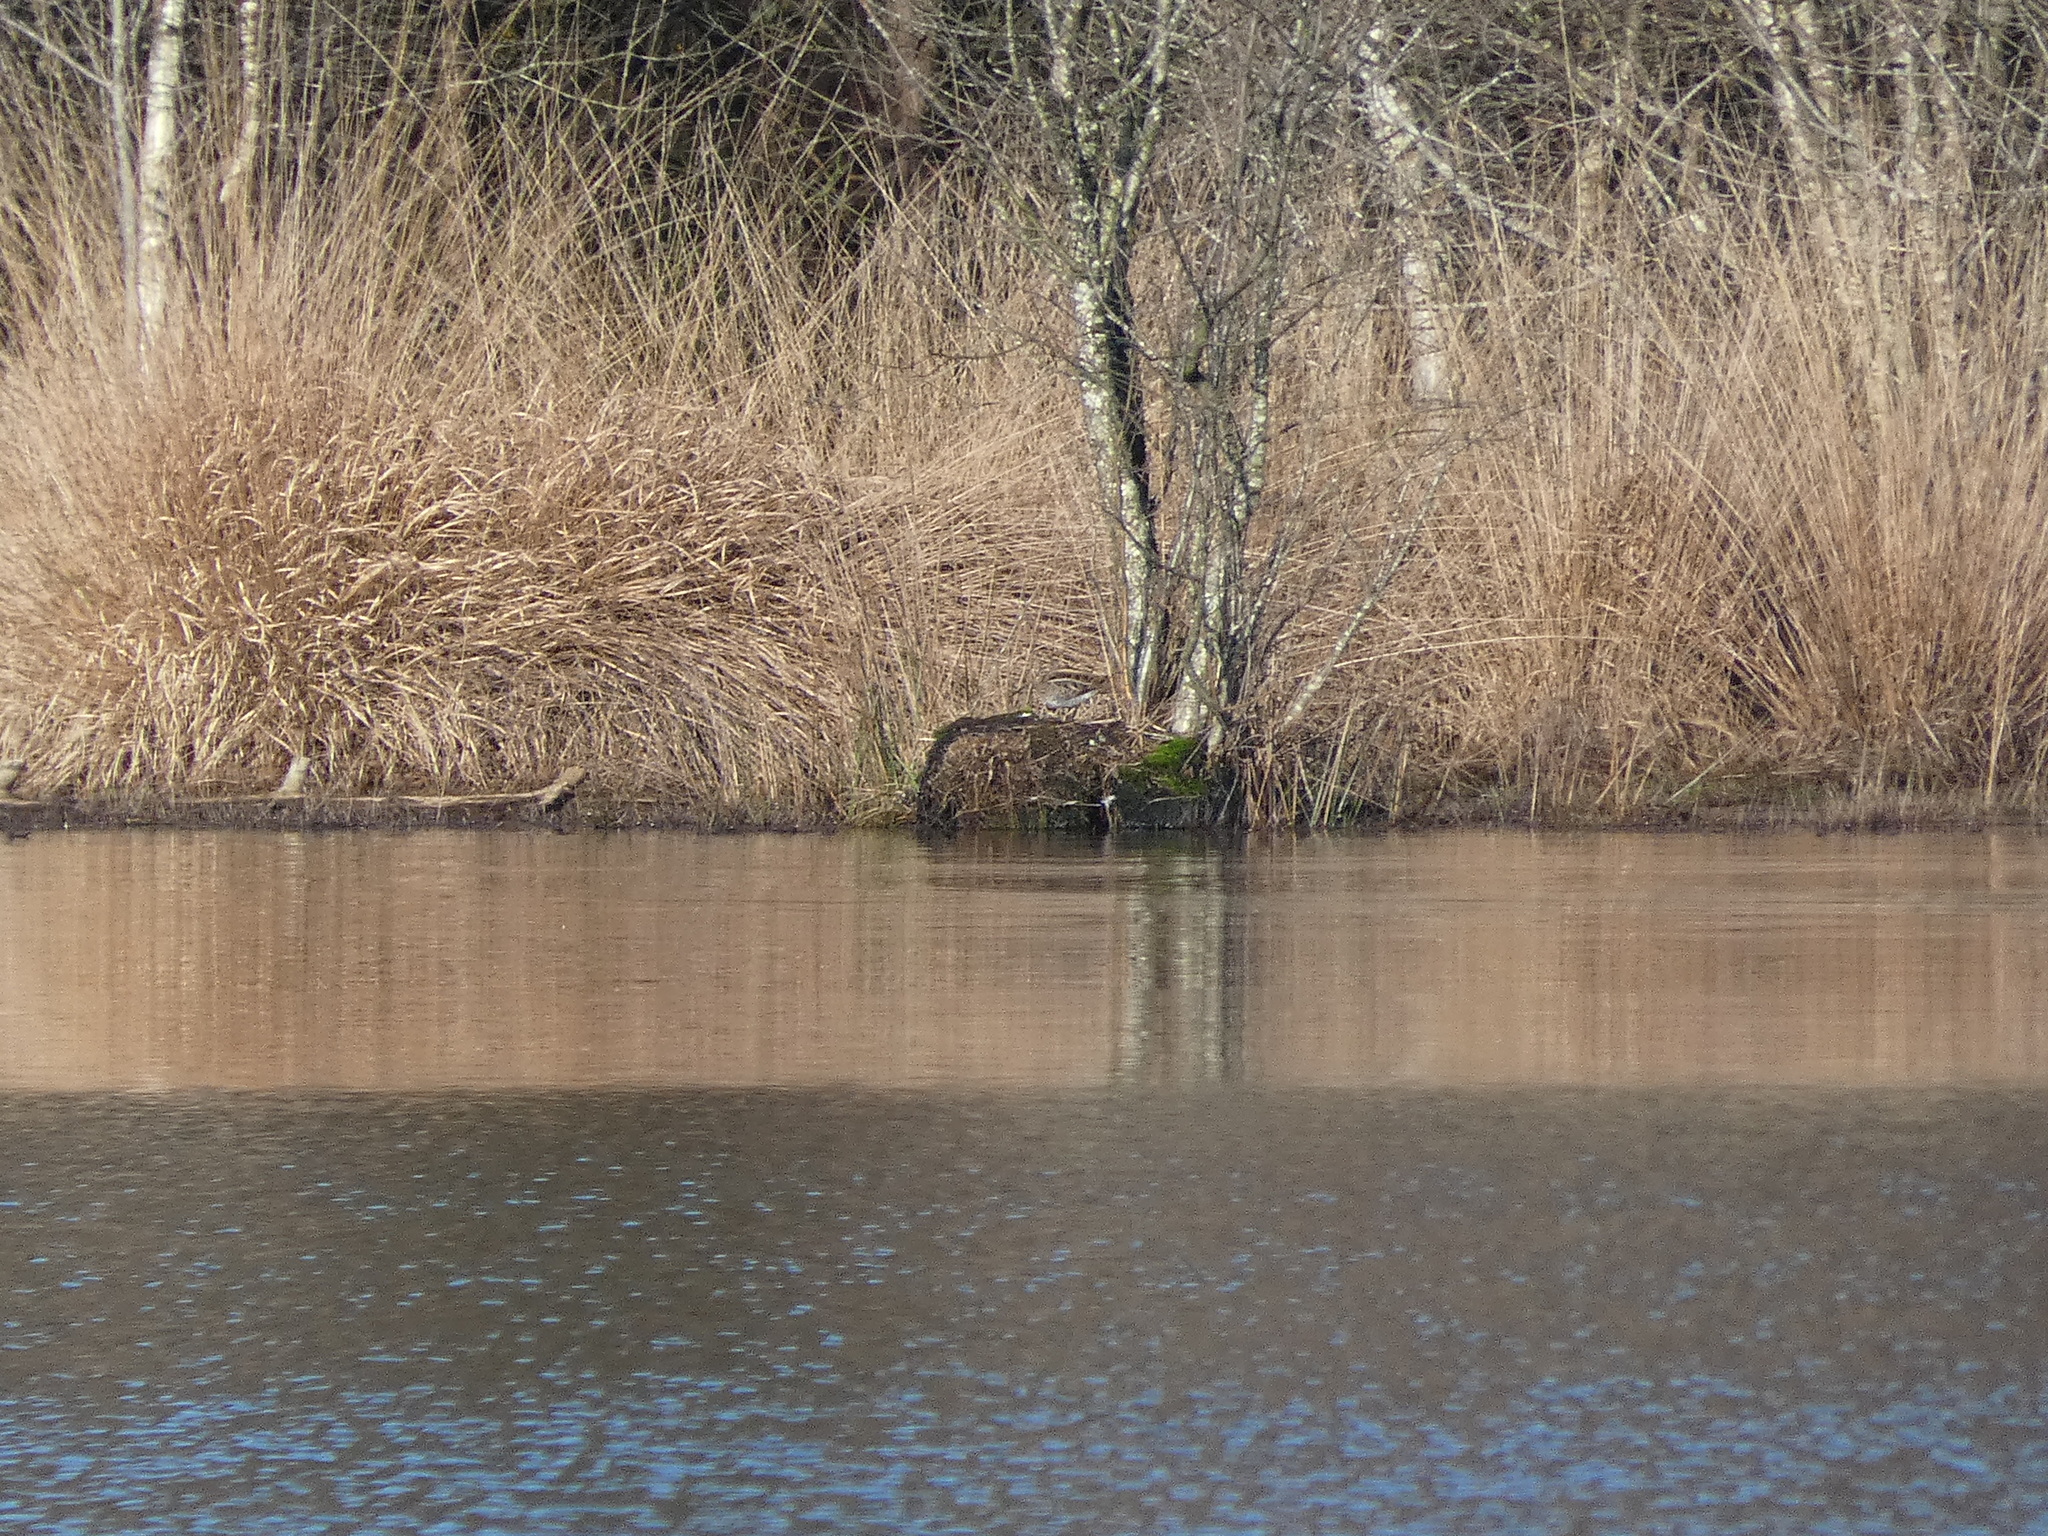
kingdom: Animalia
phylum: Chordata
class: Aves
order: Charadriiformes
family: Scolopacidae
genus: Gallinago
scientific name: Gallinago gallinago
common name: Common snipe
